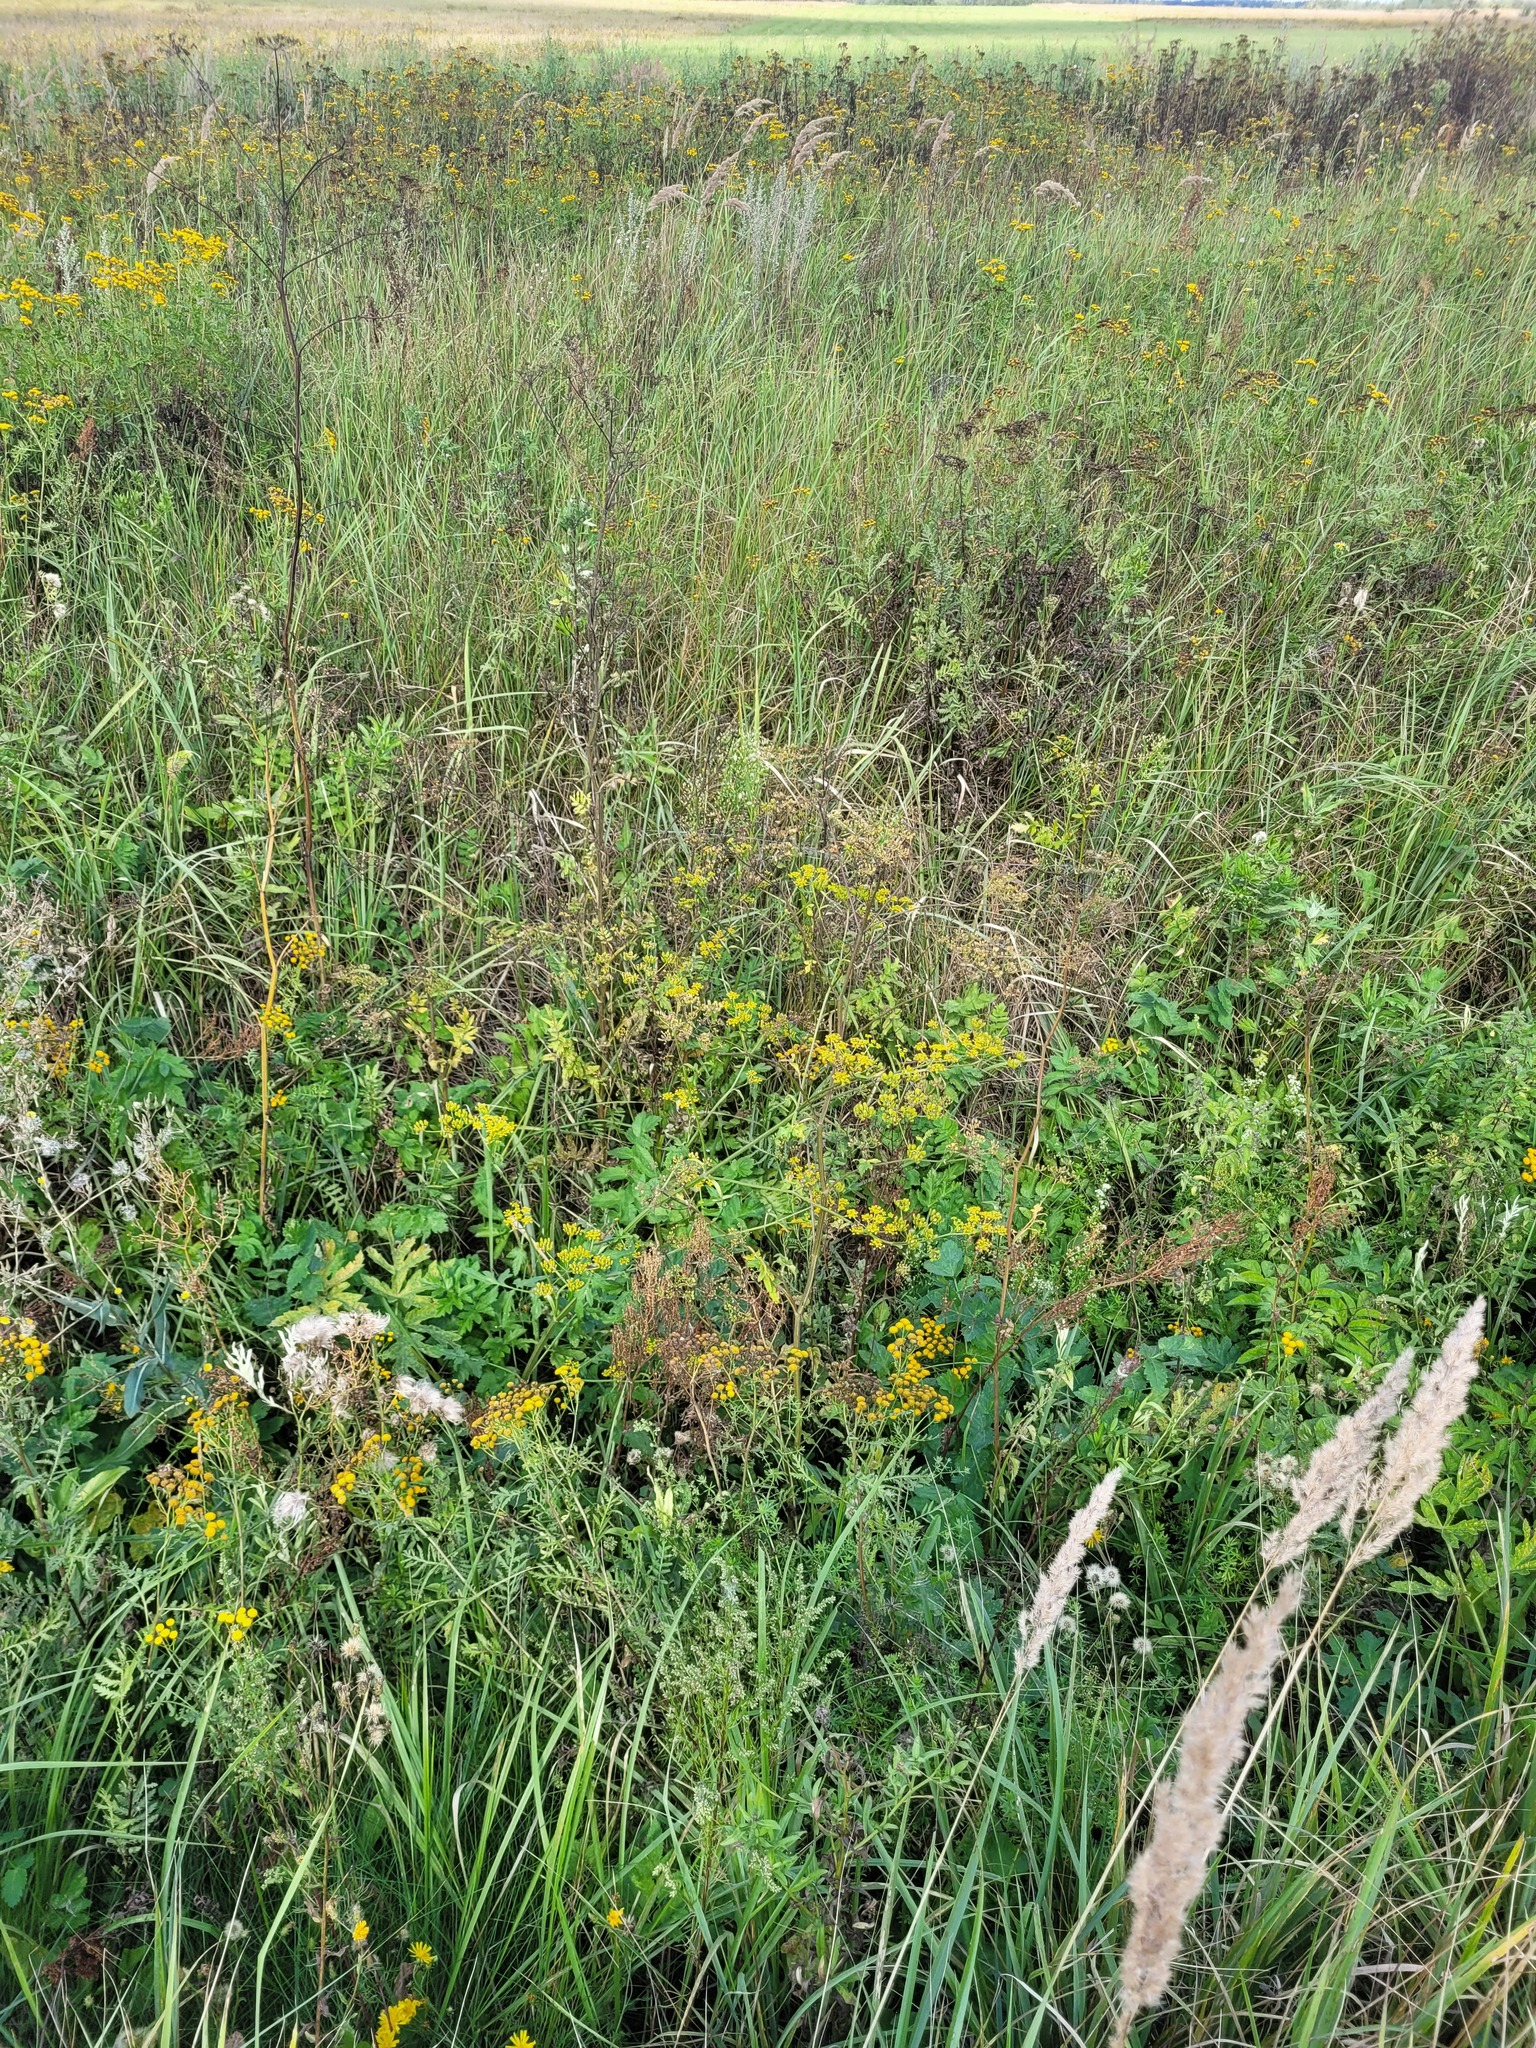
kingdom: Plantae
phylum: Tracheophyta
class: Magnoliopsida
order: Apiales
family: Apiaceae
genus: Pastinaca
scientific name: Pastinaca sativa
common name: Wild parsnip
